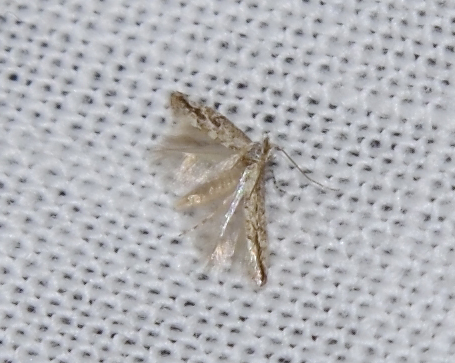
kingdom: Animalia
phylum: Arthropoda
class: Insecta
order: Lepidoptera
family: Gracillariidae
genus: Phyllonorycter
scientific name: Phyllonorycter issikii
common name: Linden midget
